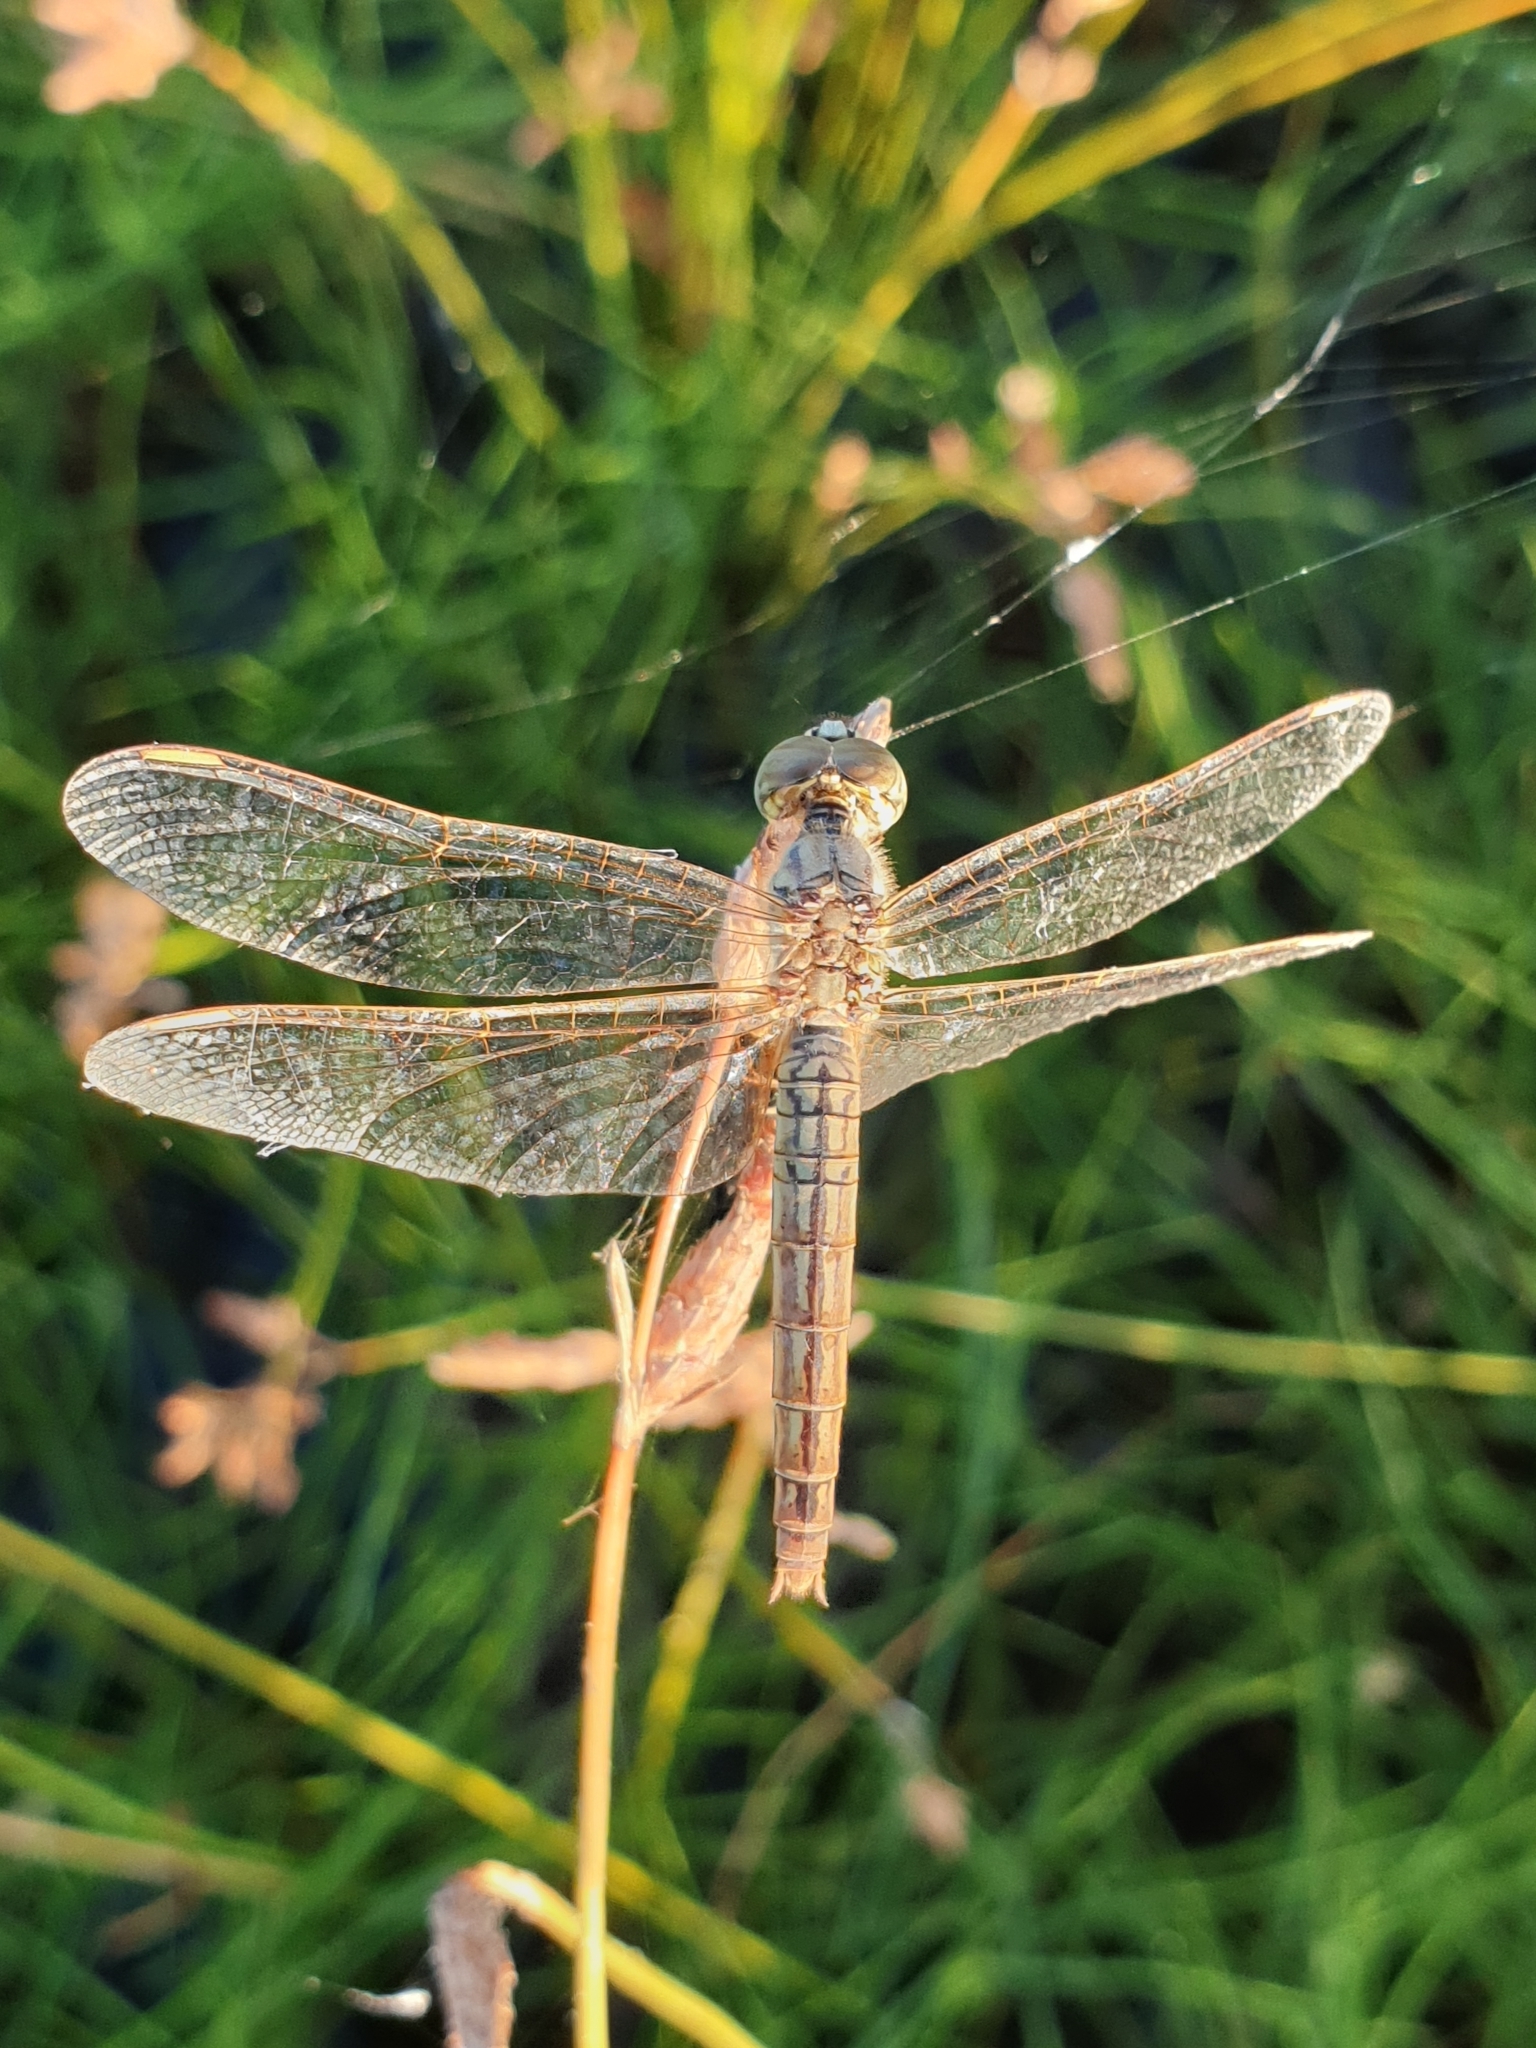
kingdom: Animalia
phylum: Arthropoda
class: Insecta
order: Odonata
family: Libellulidae
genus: Brachythemis
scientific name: Brachythemis contaminata
